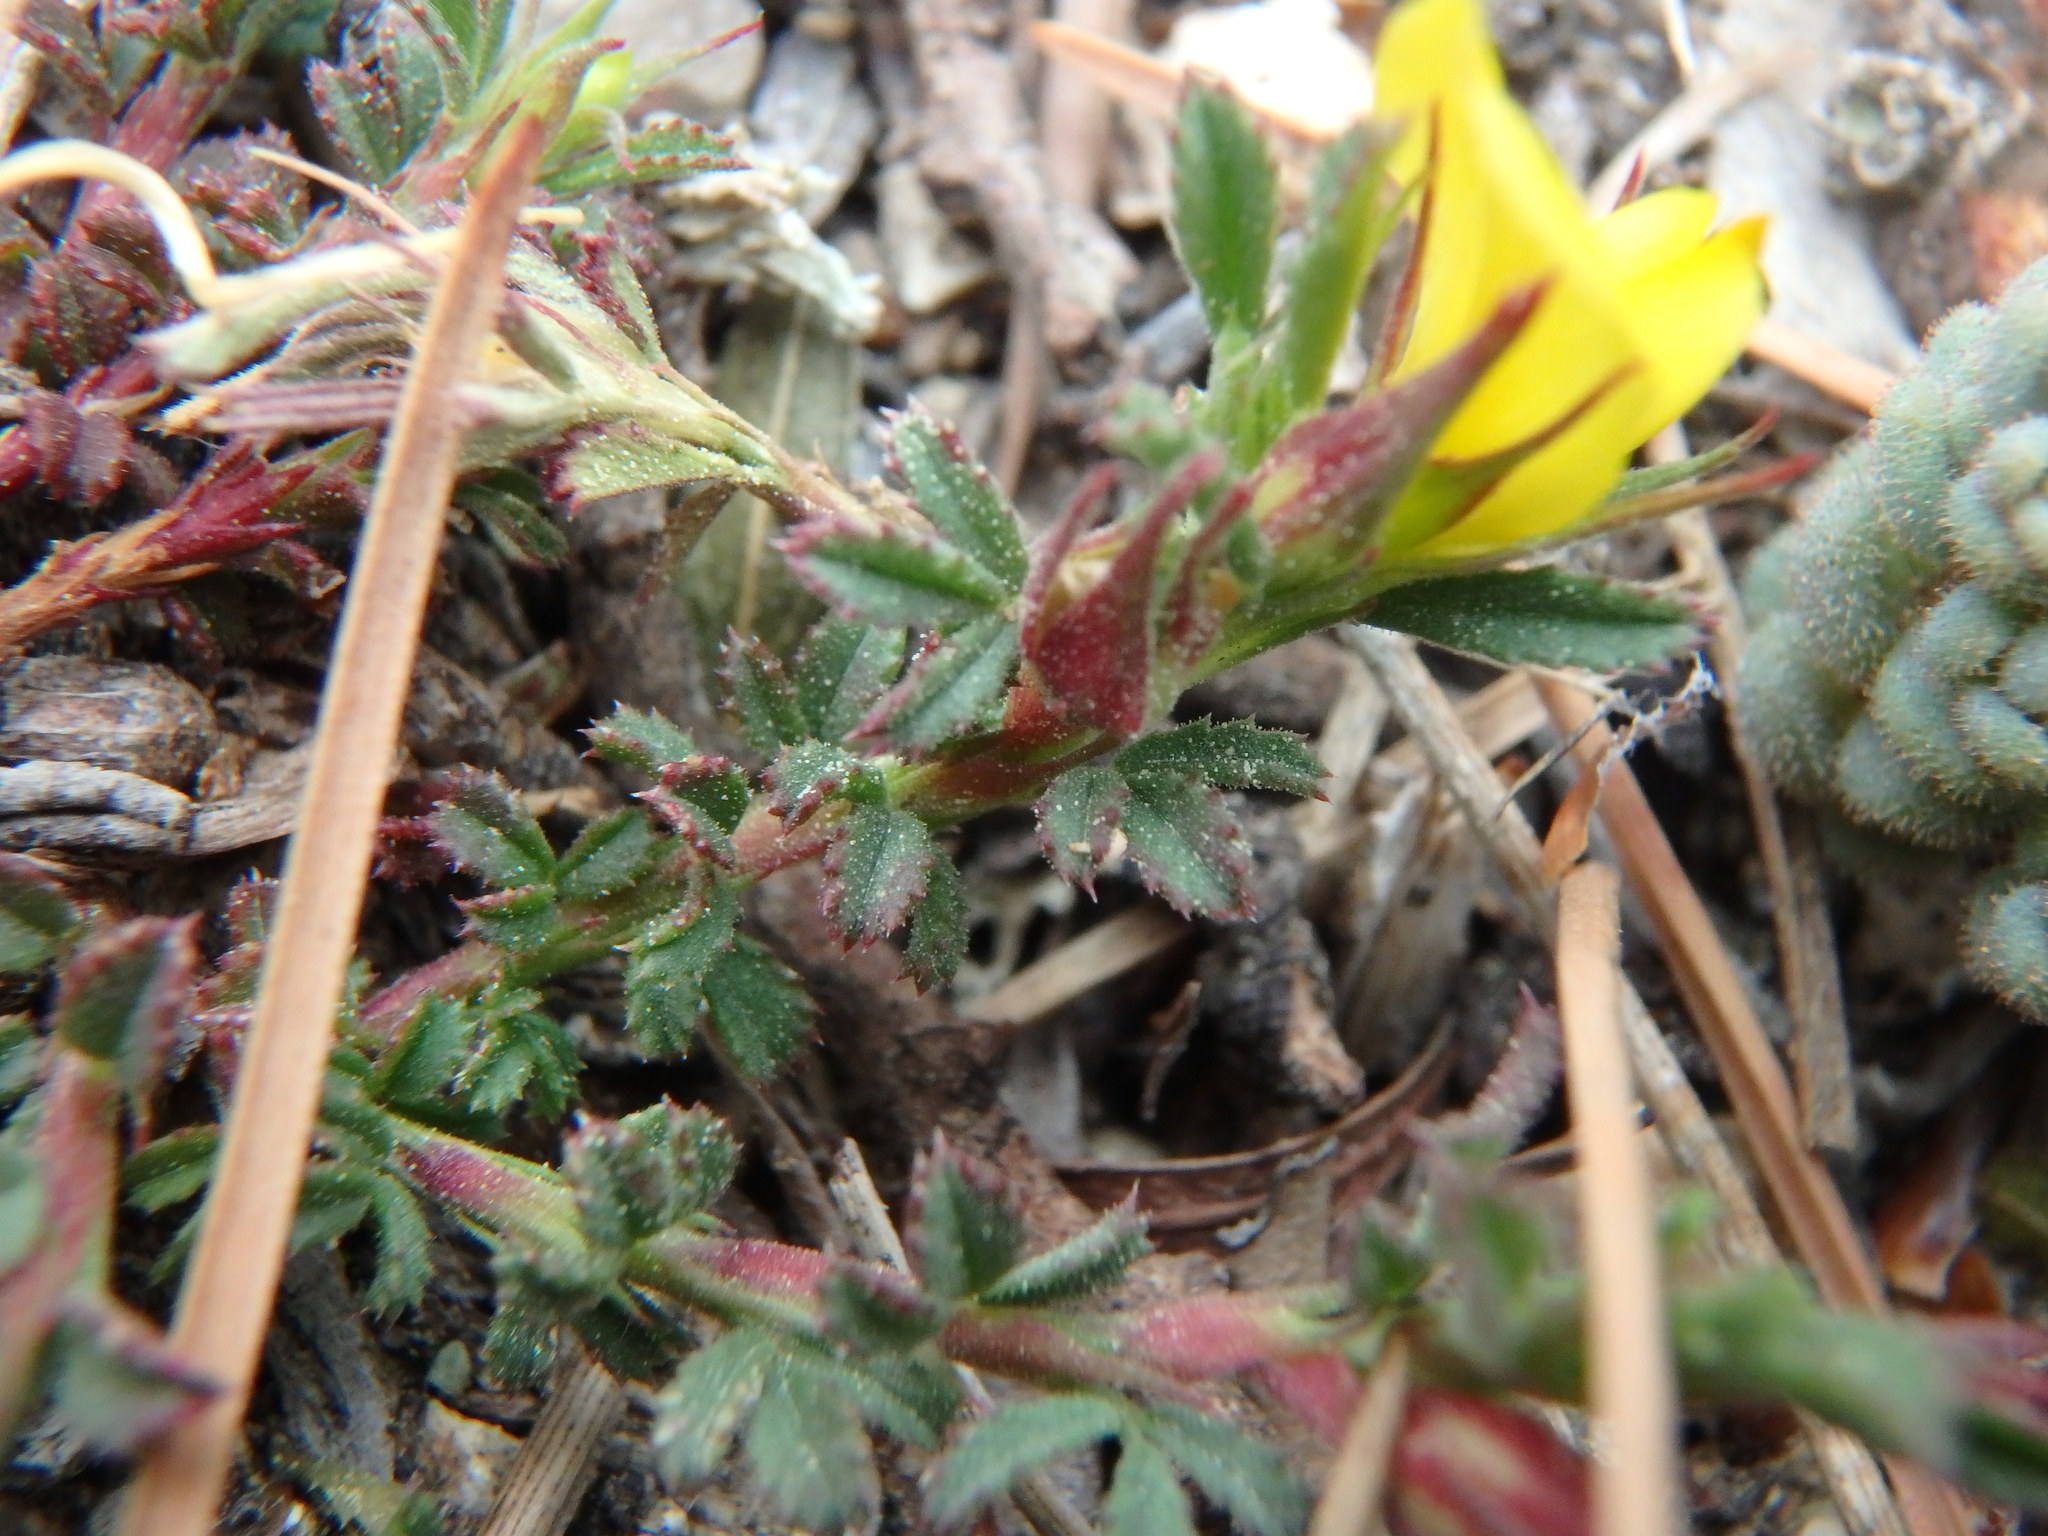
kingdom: Plantae
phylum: Tracheophyta
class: Magnoliopsida
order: Fabales
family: Fabaceae
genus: Ononis
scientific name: Ononis minutissima
